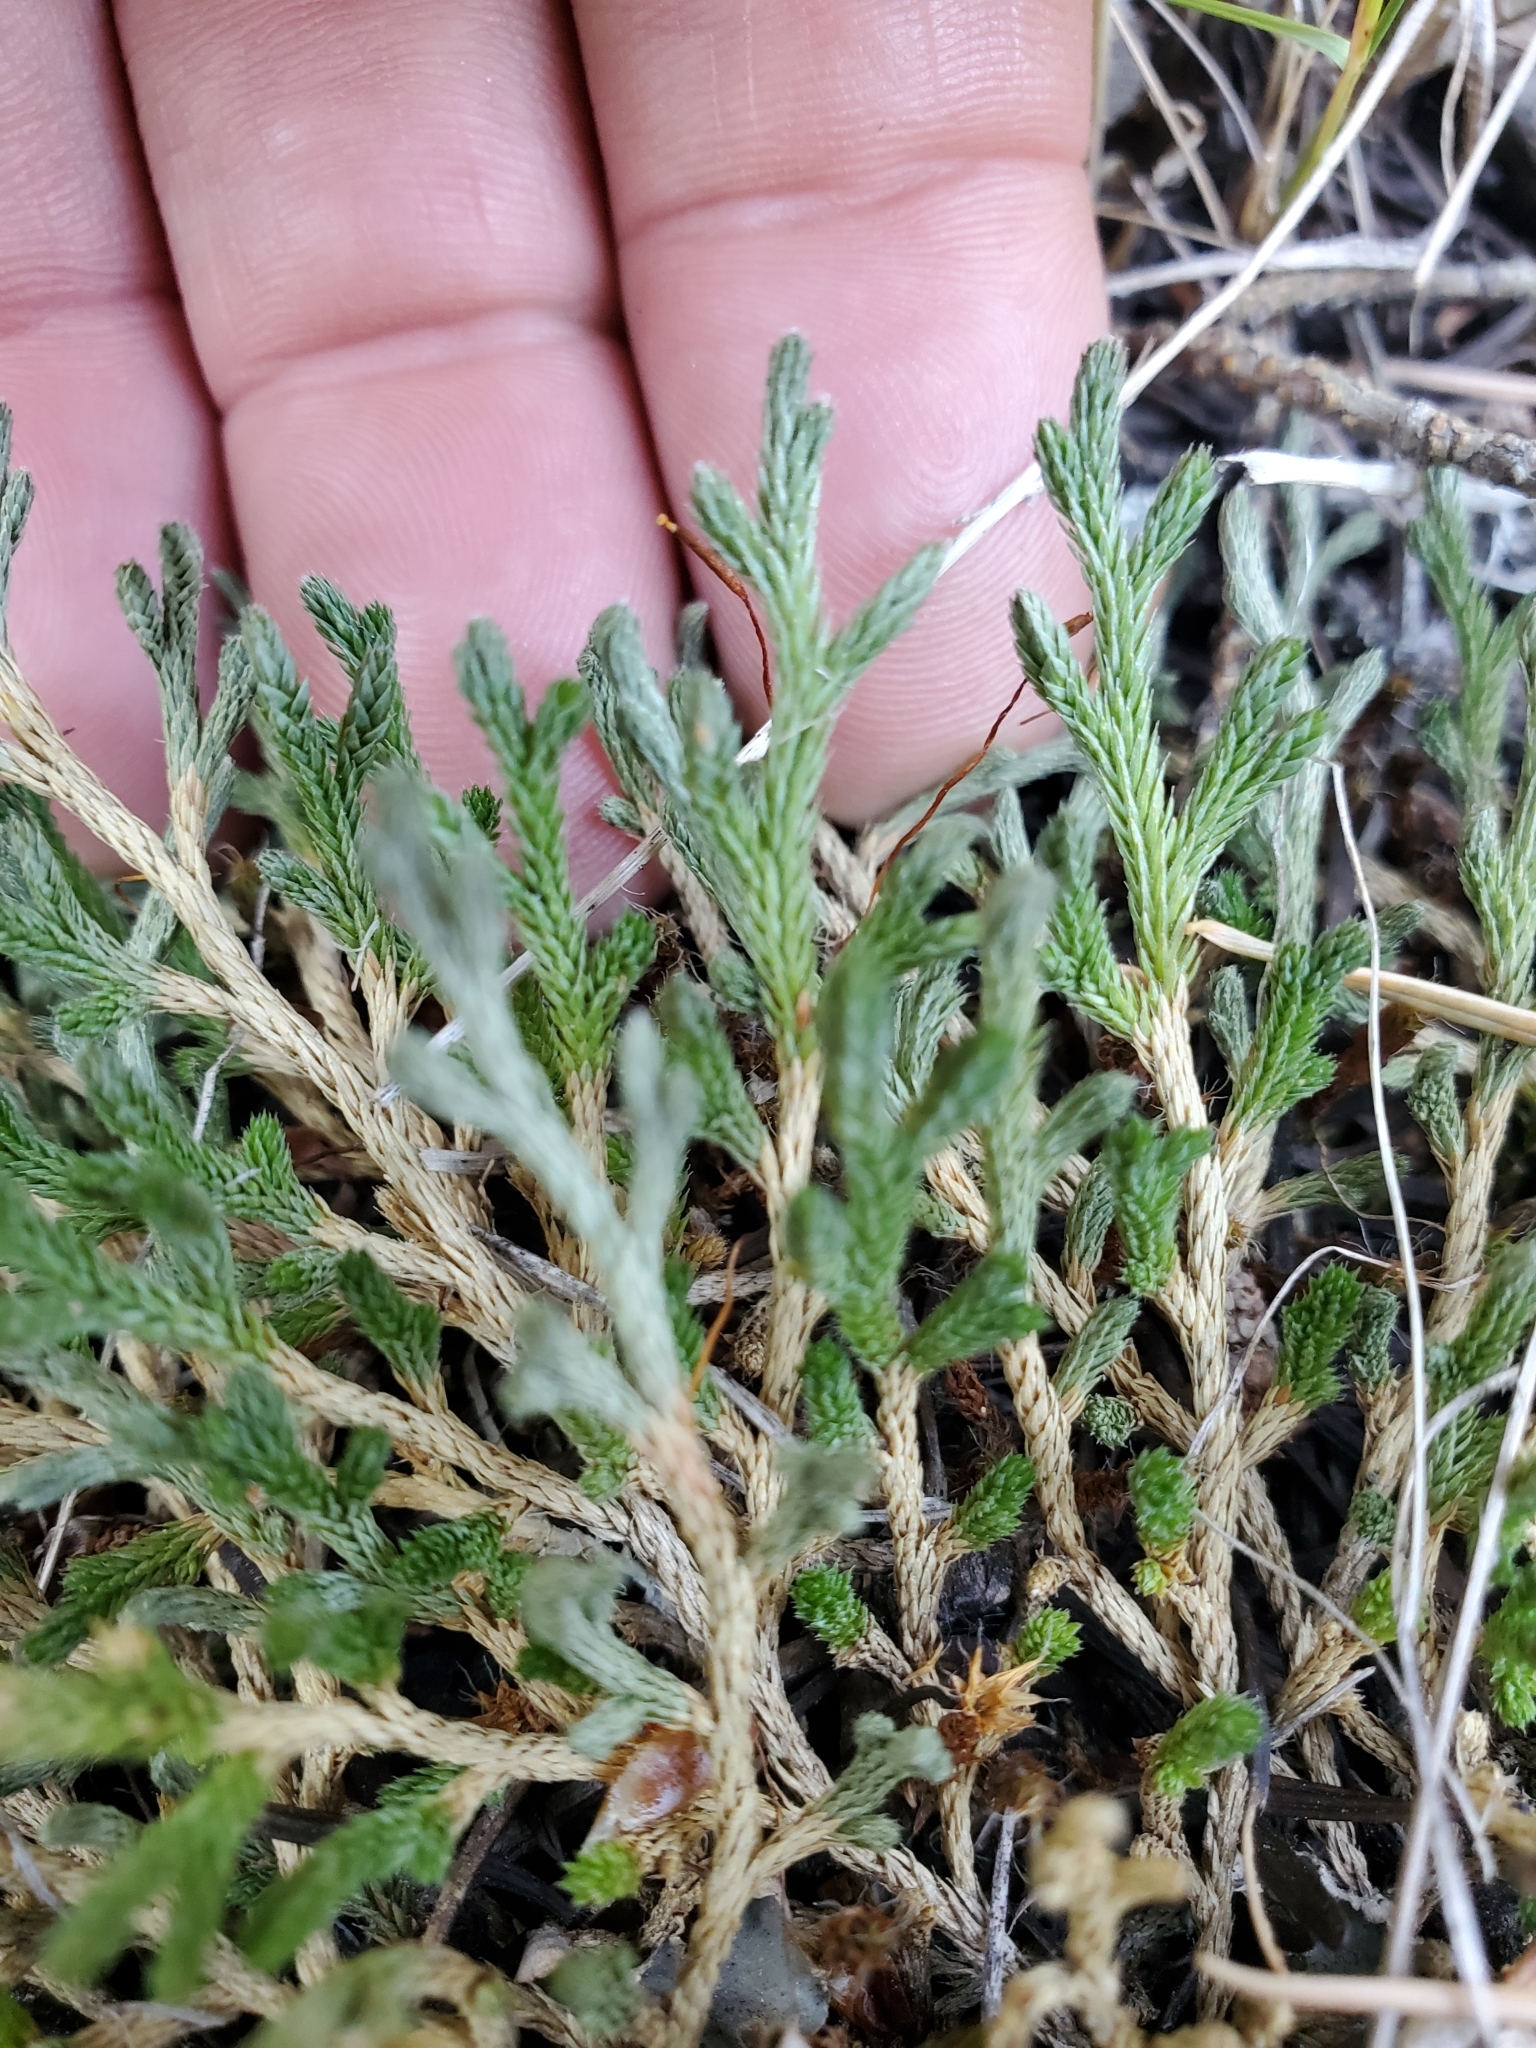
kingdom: Plantae
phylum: Tracheophyta
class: Lycopodiopsida
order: Selaginellales
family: Selaginellaceae
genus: Selaginella
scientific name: Selaginella wallacei
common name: Wallace's selaginella
